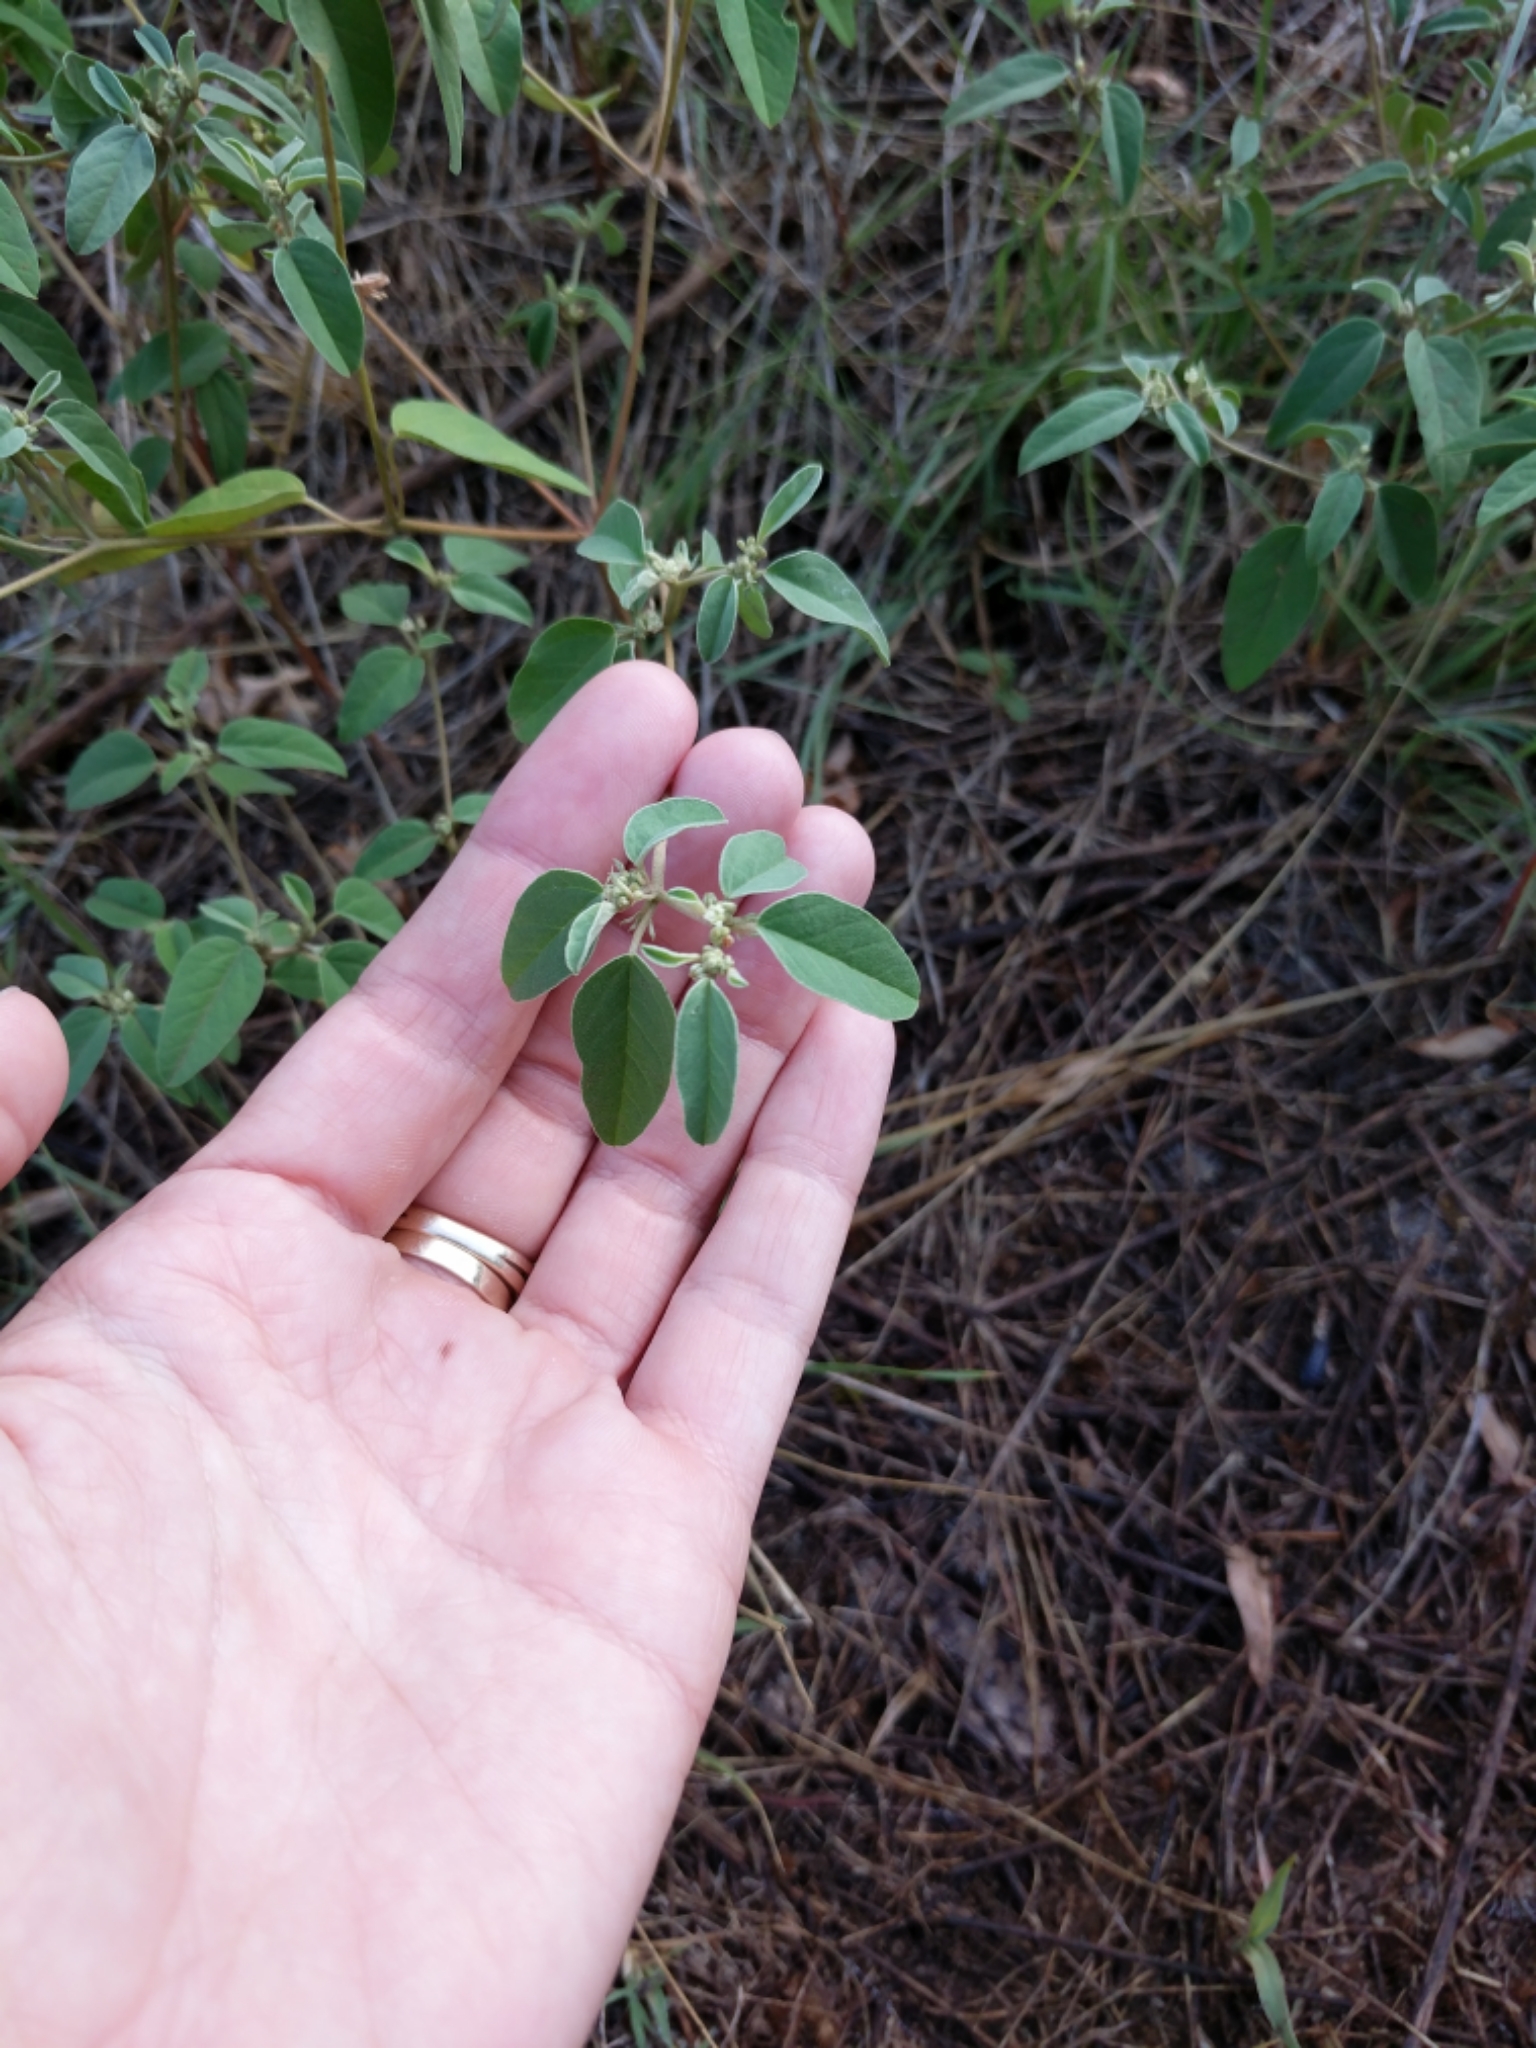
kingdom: Plantae
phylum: Tracheophyta
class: Magnoliopsida
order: Malpighiales
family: Euphorbiaceae
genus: Croton
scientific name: Croton monanthogynus
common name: One-seed croton
